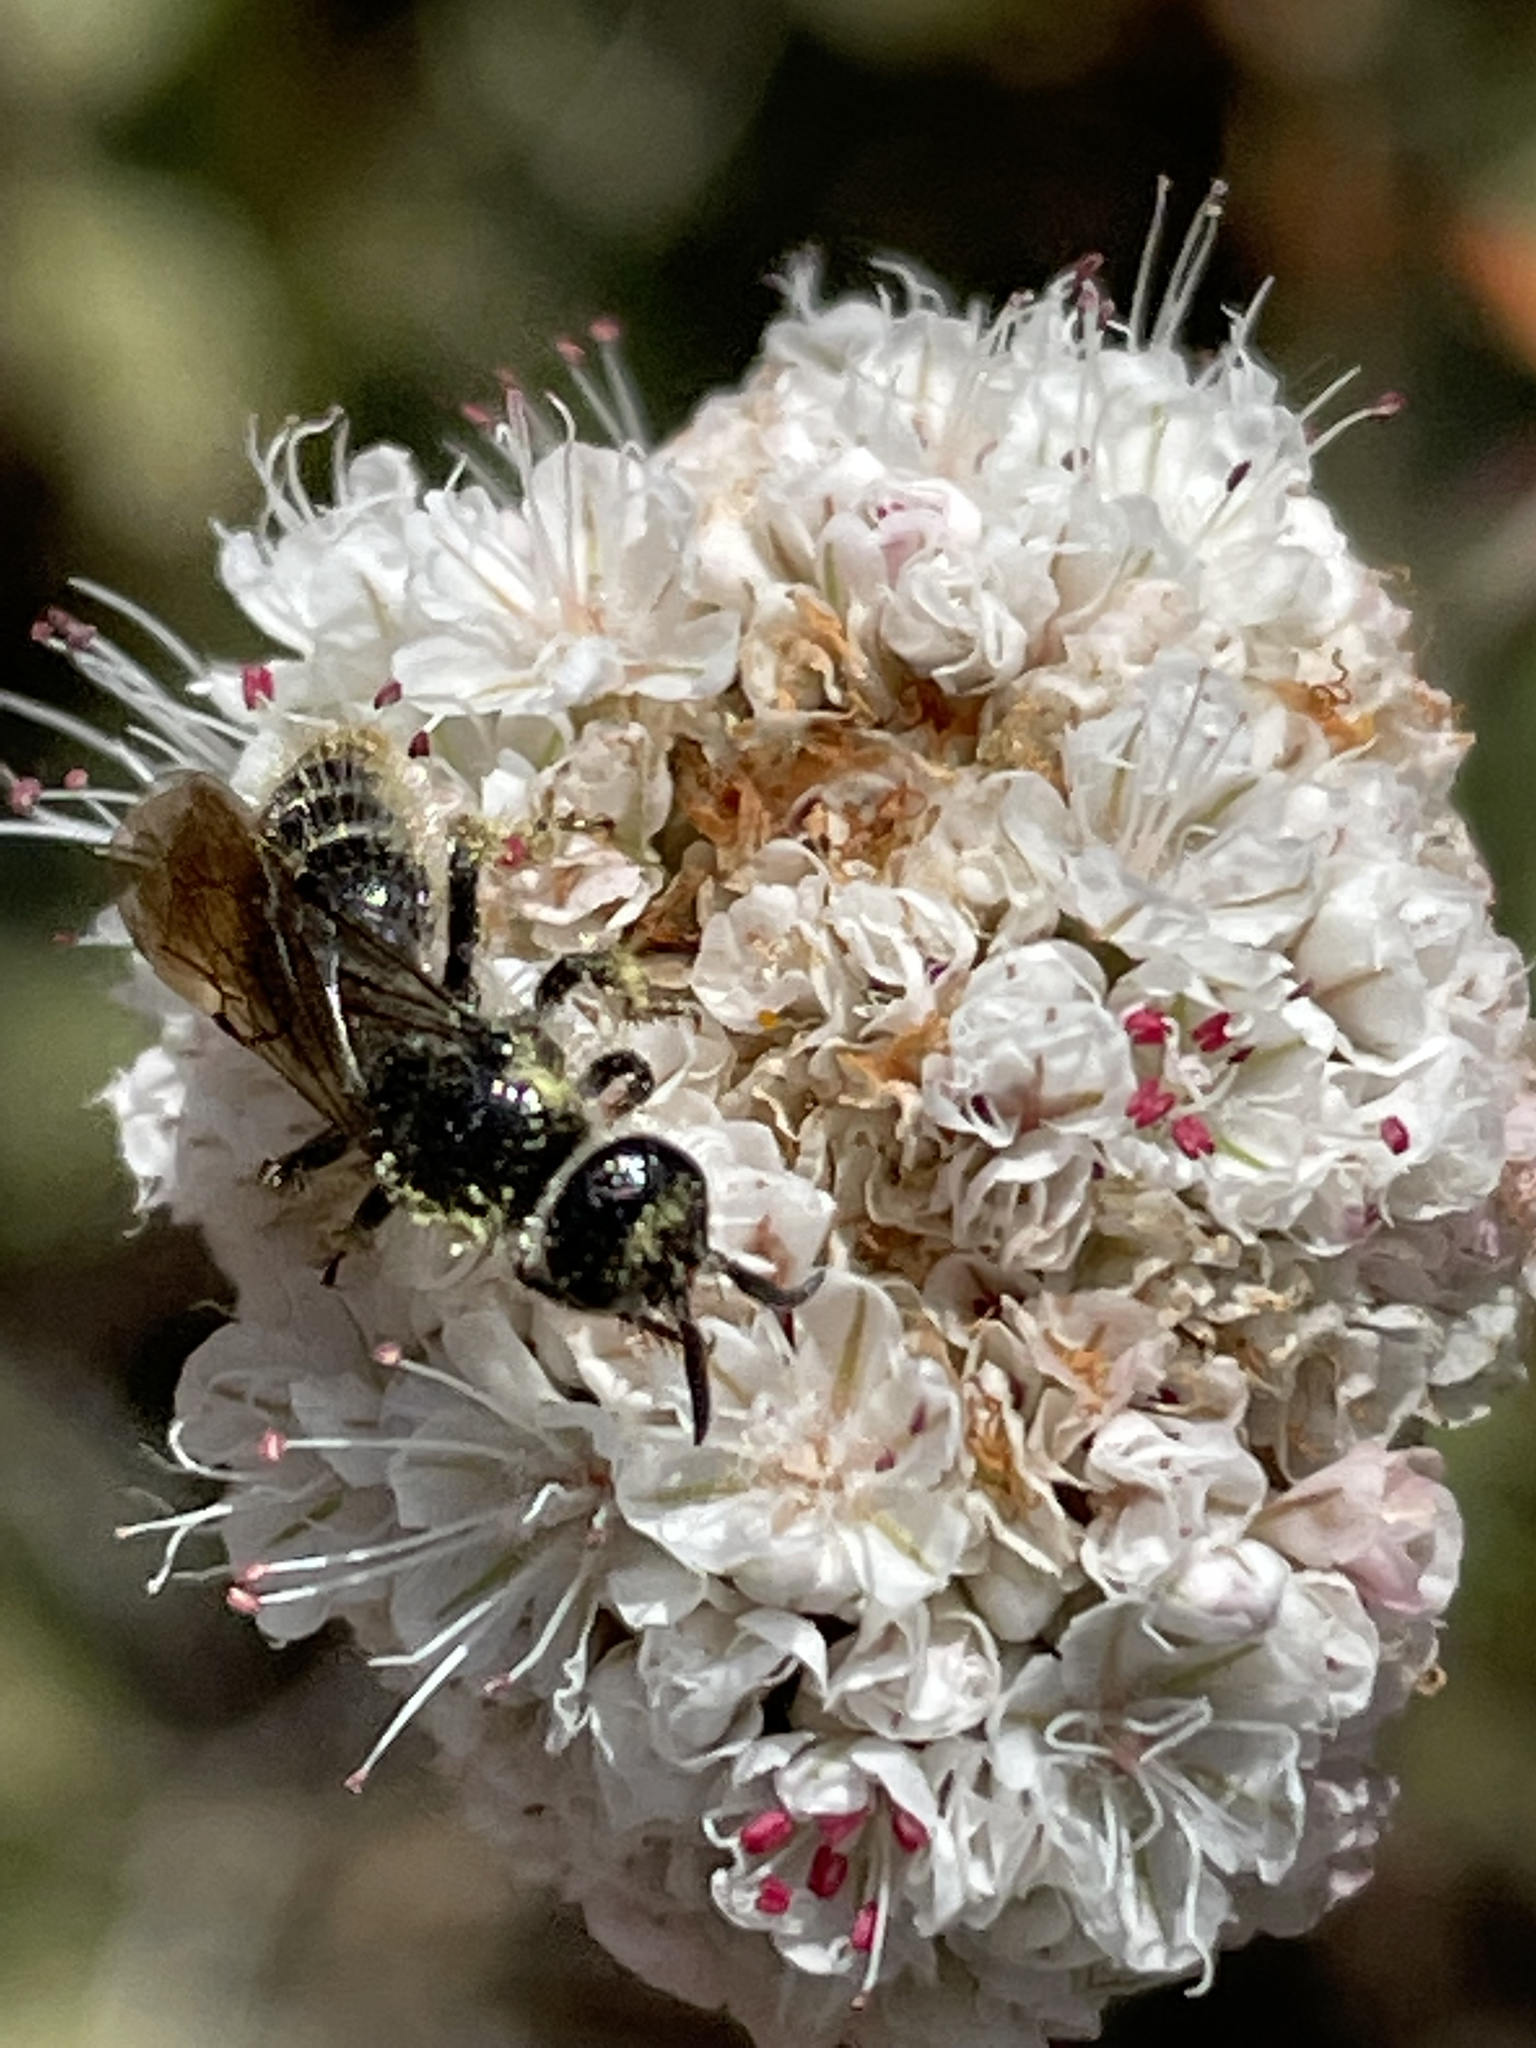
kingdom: Plantae
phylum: Tracheophyta
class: Magnoliopsida
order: Caryophyllales
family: Polygonaceae
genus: Eriogonum
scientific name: Eriogonum parvifolium
